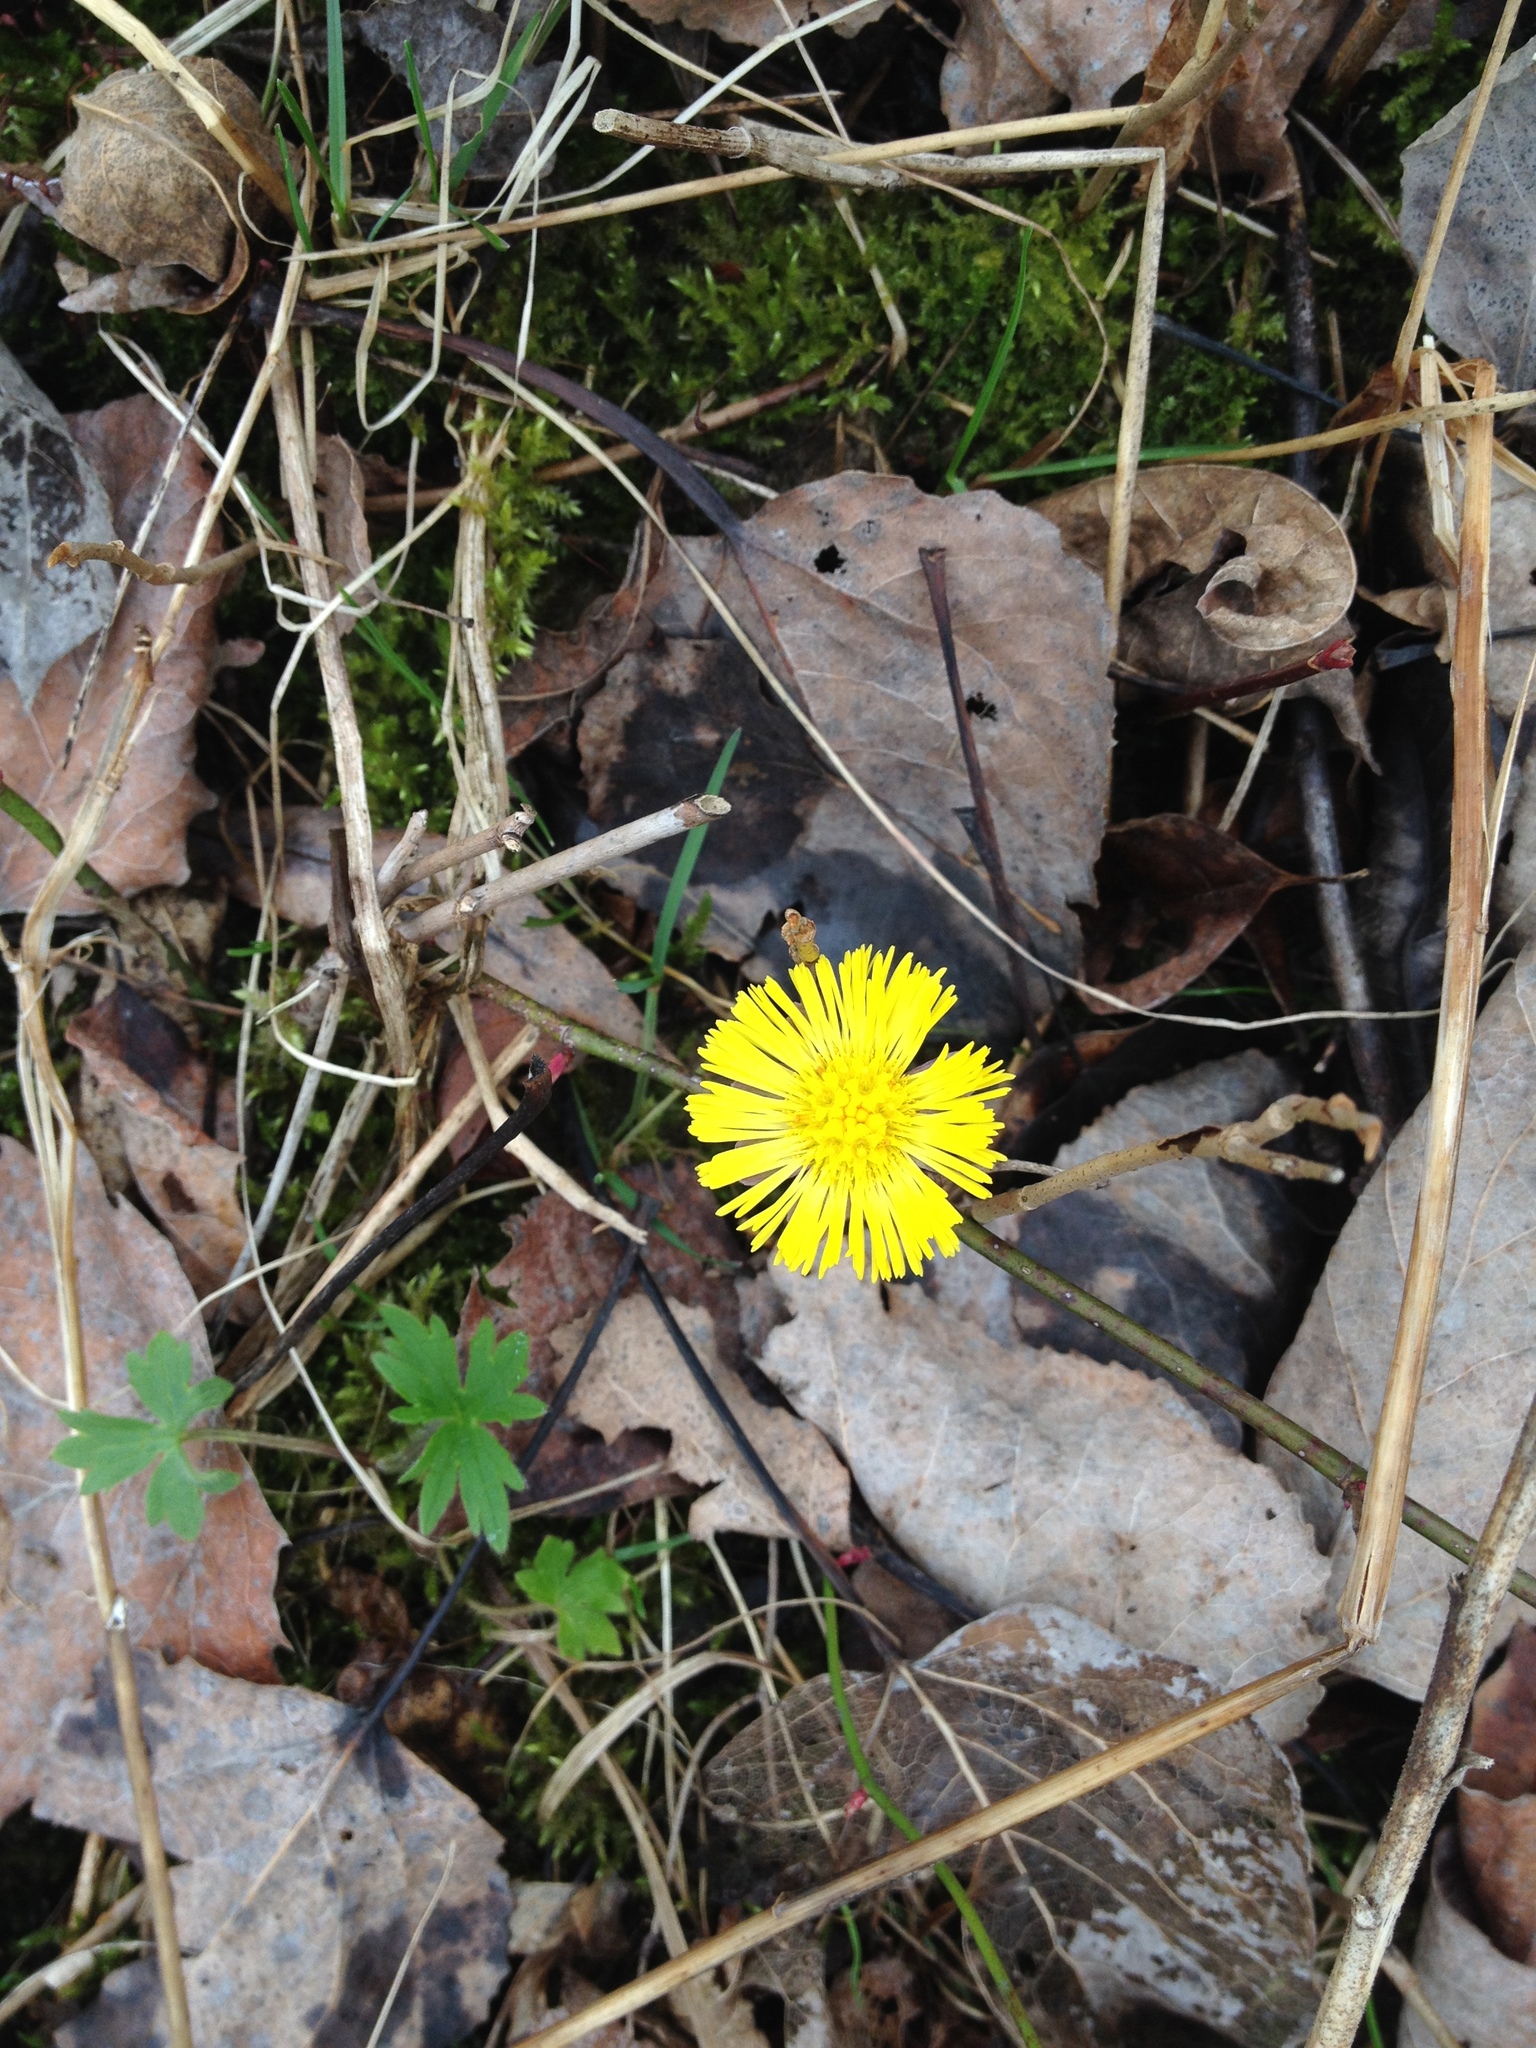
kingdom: Plantae
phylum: Tracheophyta
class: Magnoliopsida
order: Asterales
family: Asteraceae
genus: Tussilago
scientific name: Tussilago farfara
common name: Coltsfoot
